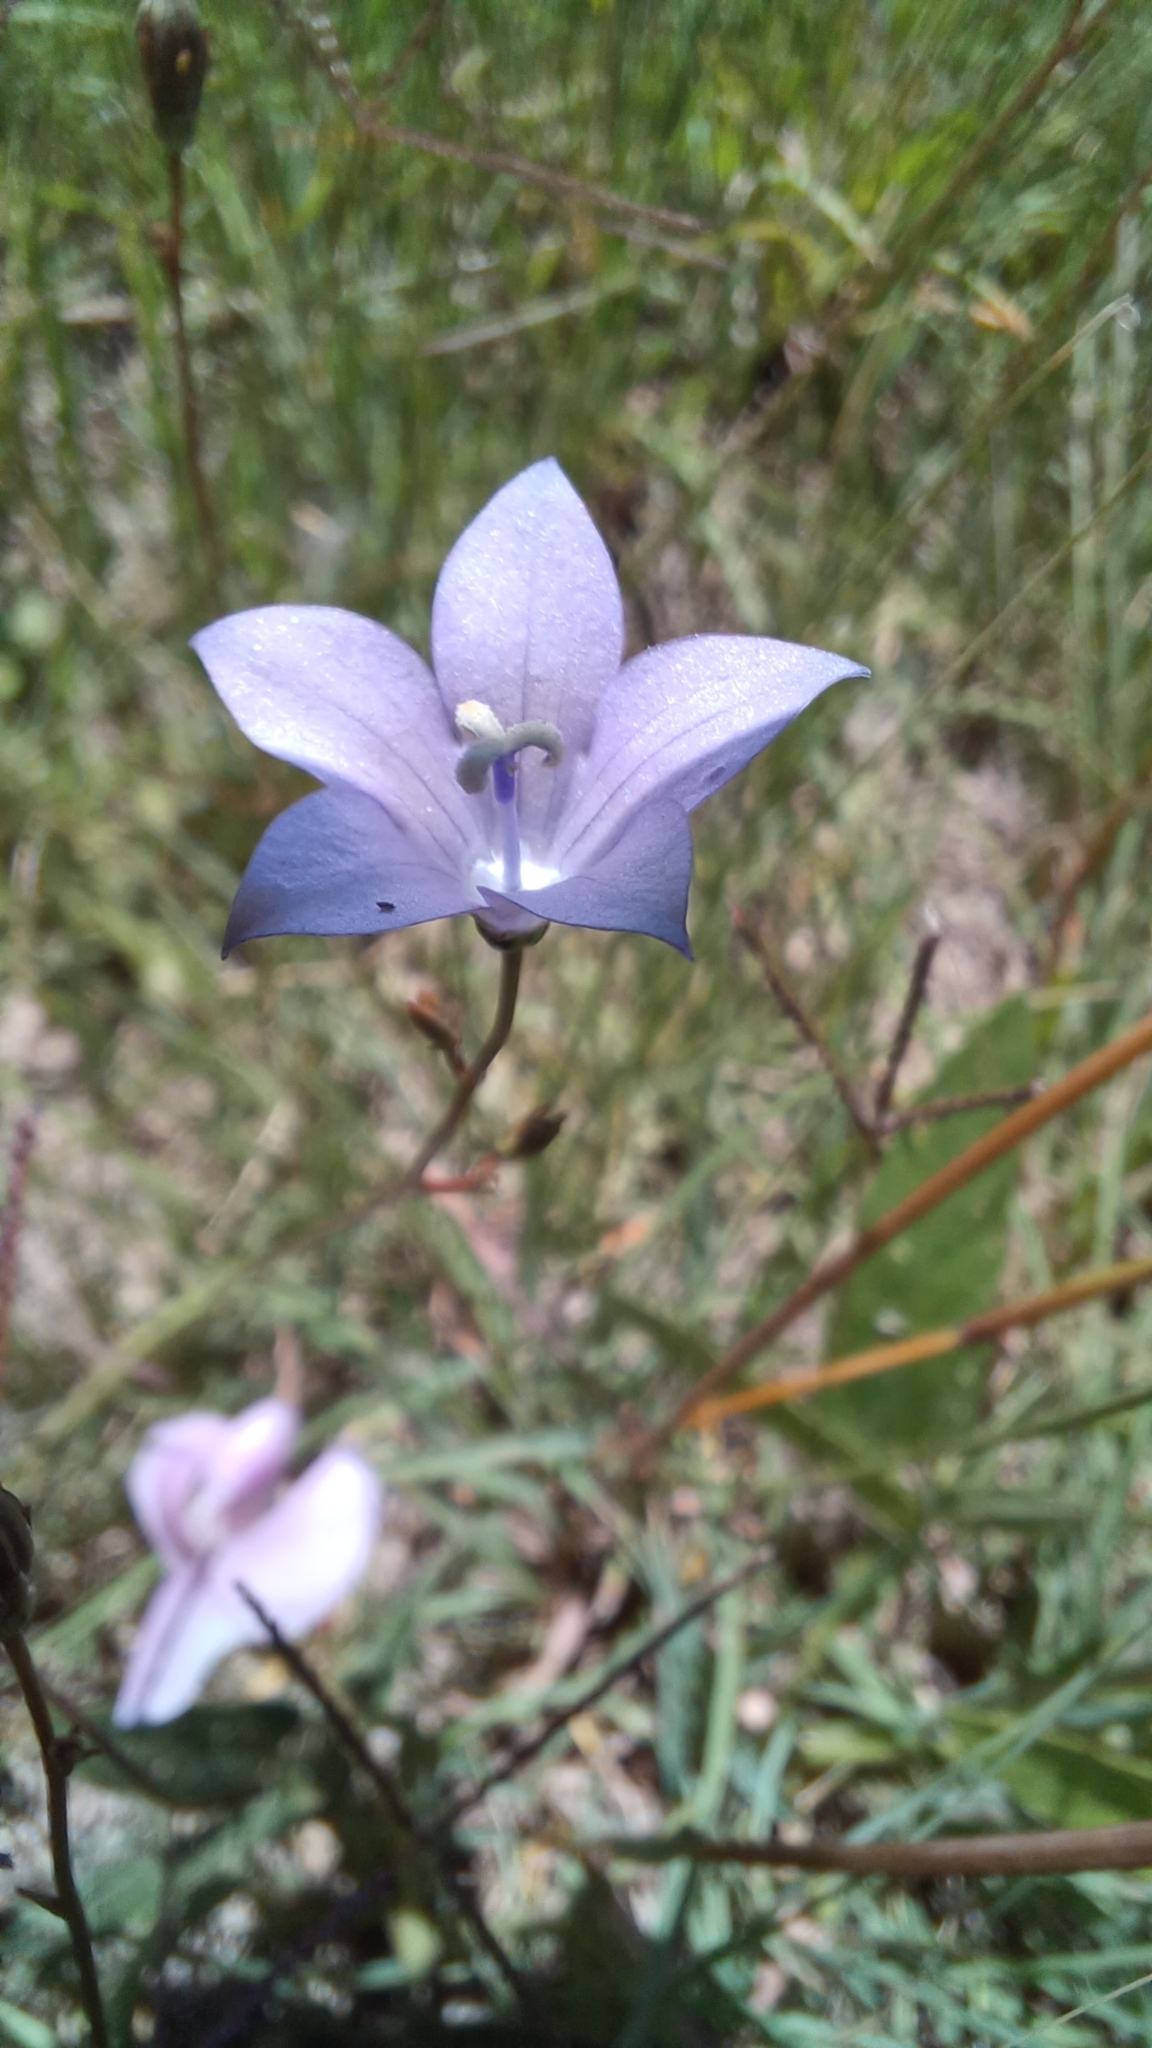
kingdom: Plantae
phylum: Tracheophyta
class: Magnoliopsida
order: Asterales
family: Campanulaceae
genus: Wahlenbergia
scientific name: Wahlenbergia undulata
